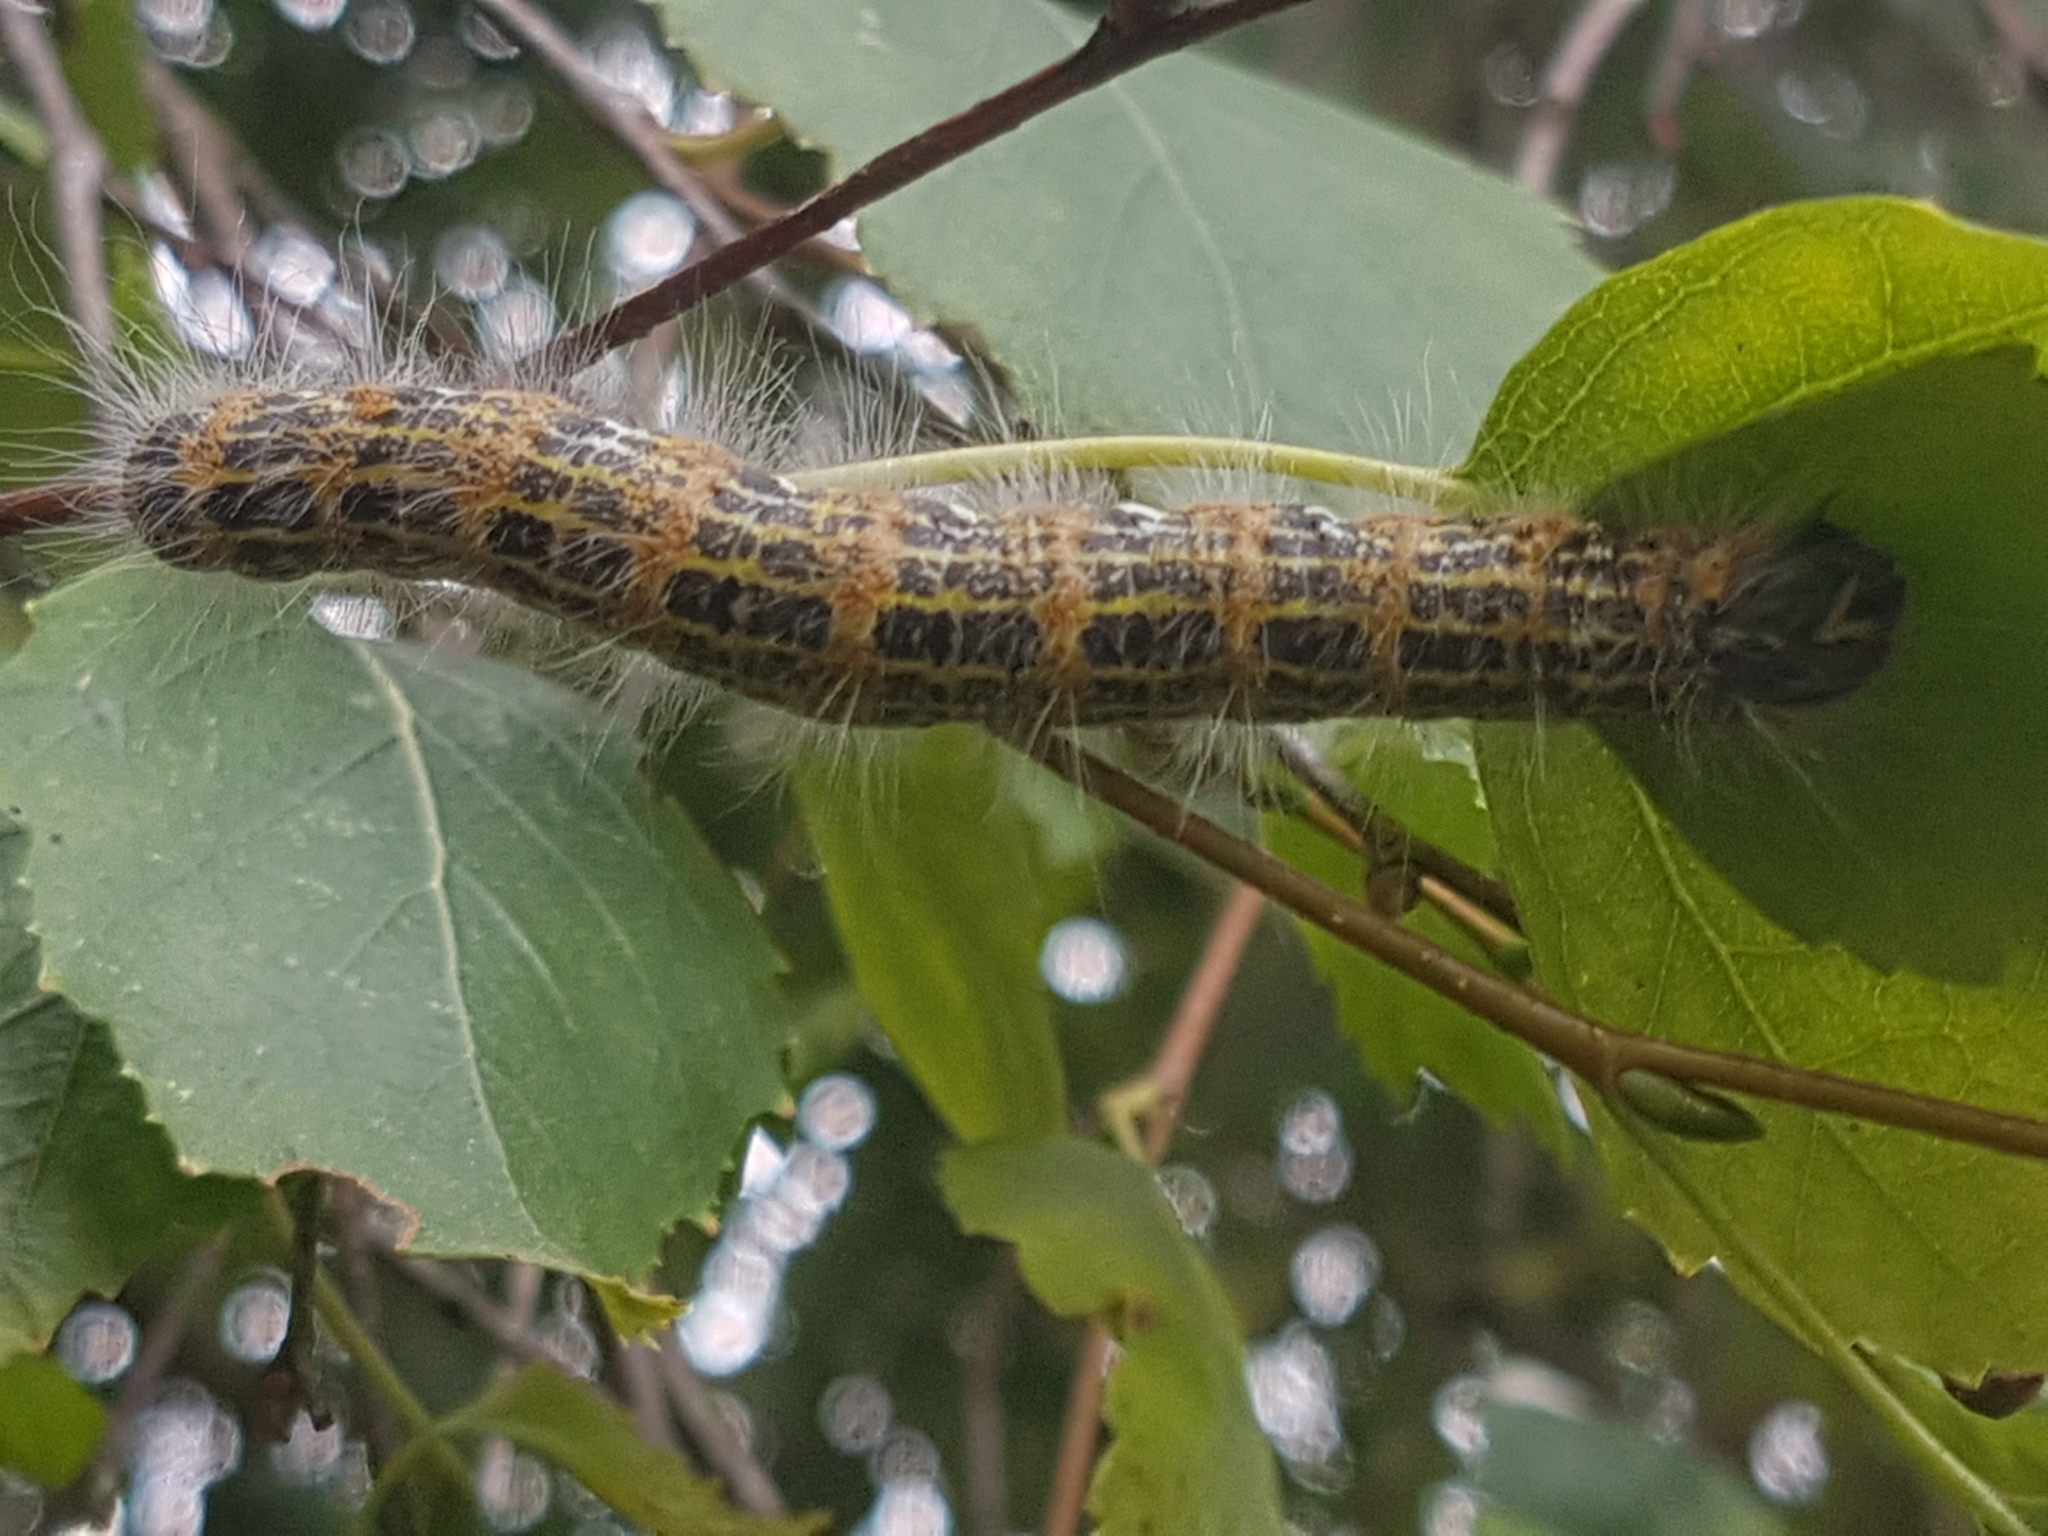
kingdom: Animalia
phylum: Arthropoda
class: Insecta
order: Lepidoptera
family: Notodontidae
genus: Phalera
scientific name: Phalera bucephala
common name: Buff-tip
